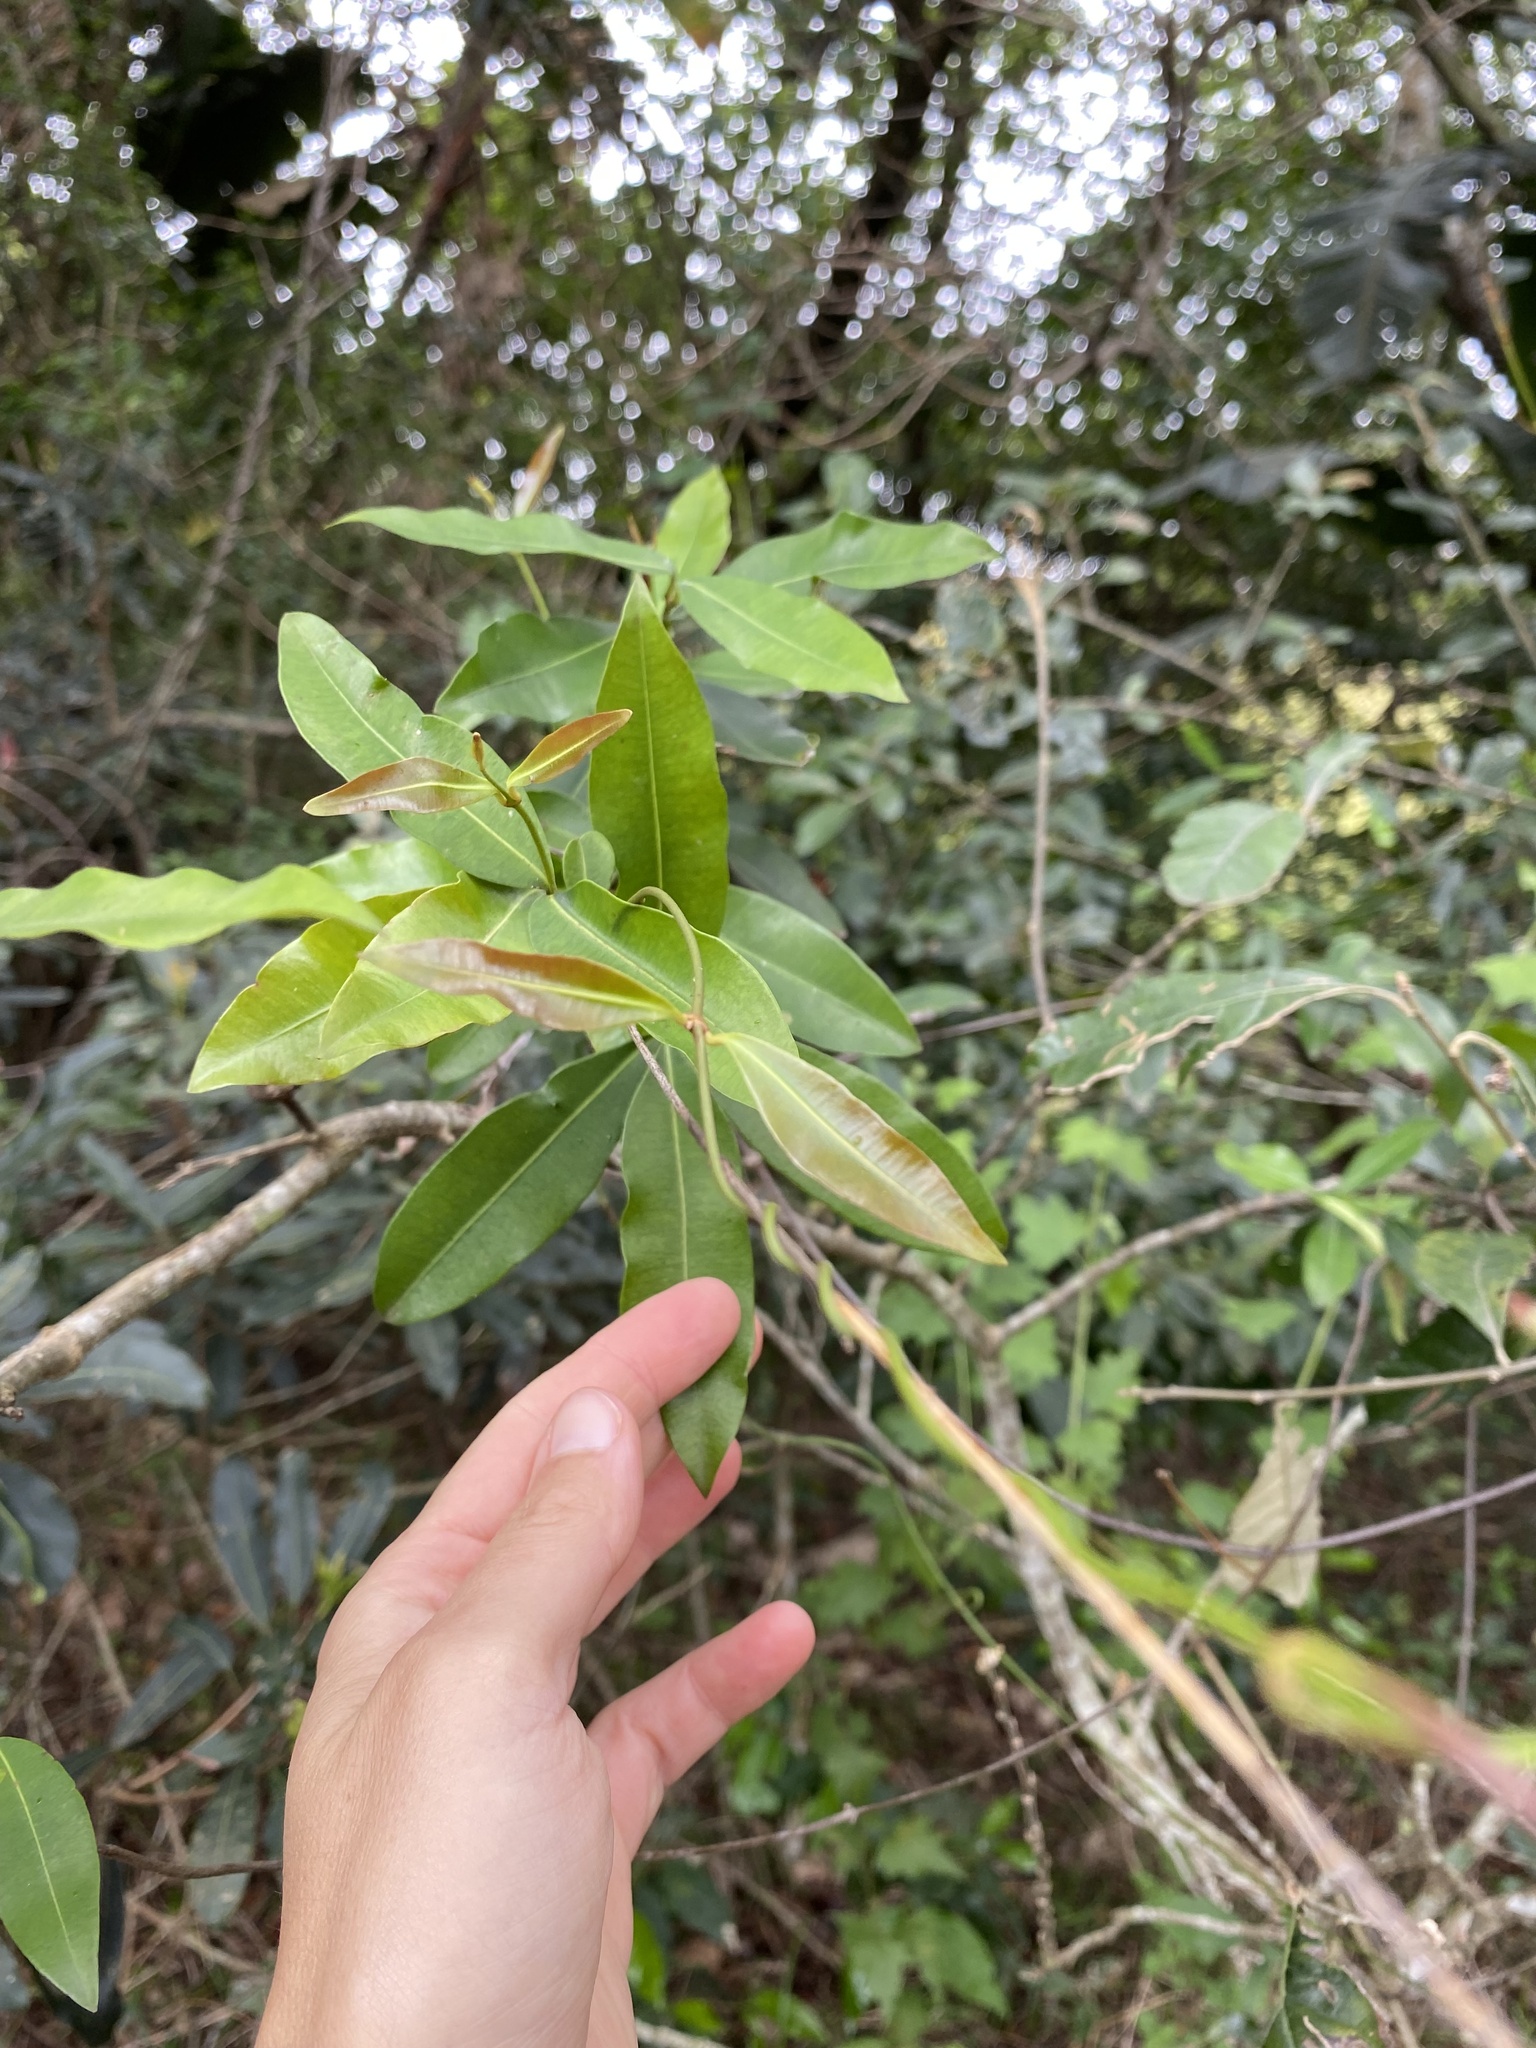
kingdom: Plantae
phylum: Tracheophyta
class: Magnoliopsida
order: Gentianales
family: Apocynaceae
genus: Secamone
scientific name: Secamone alpini
